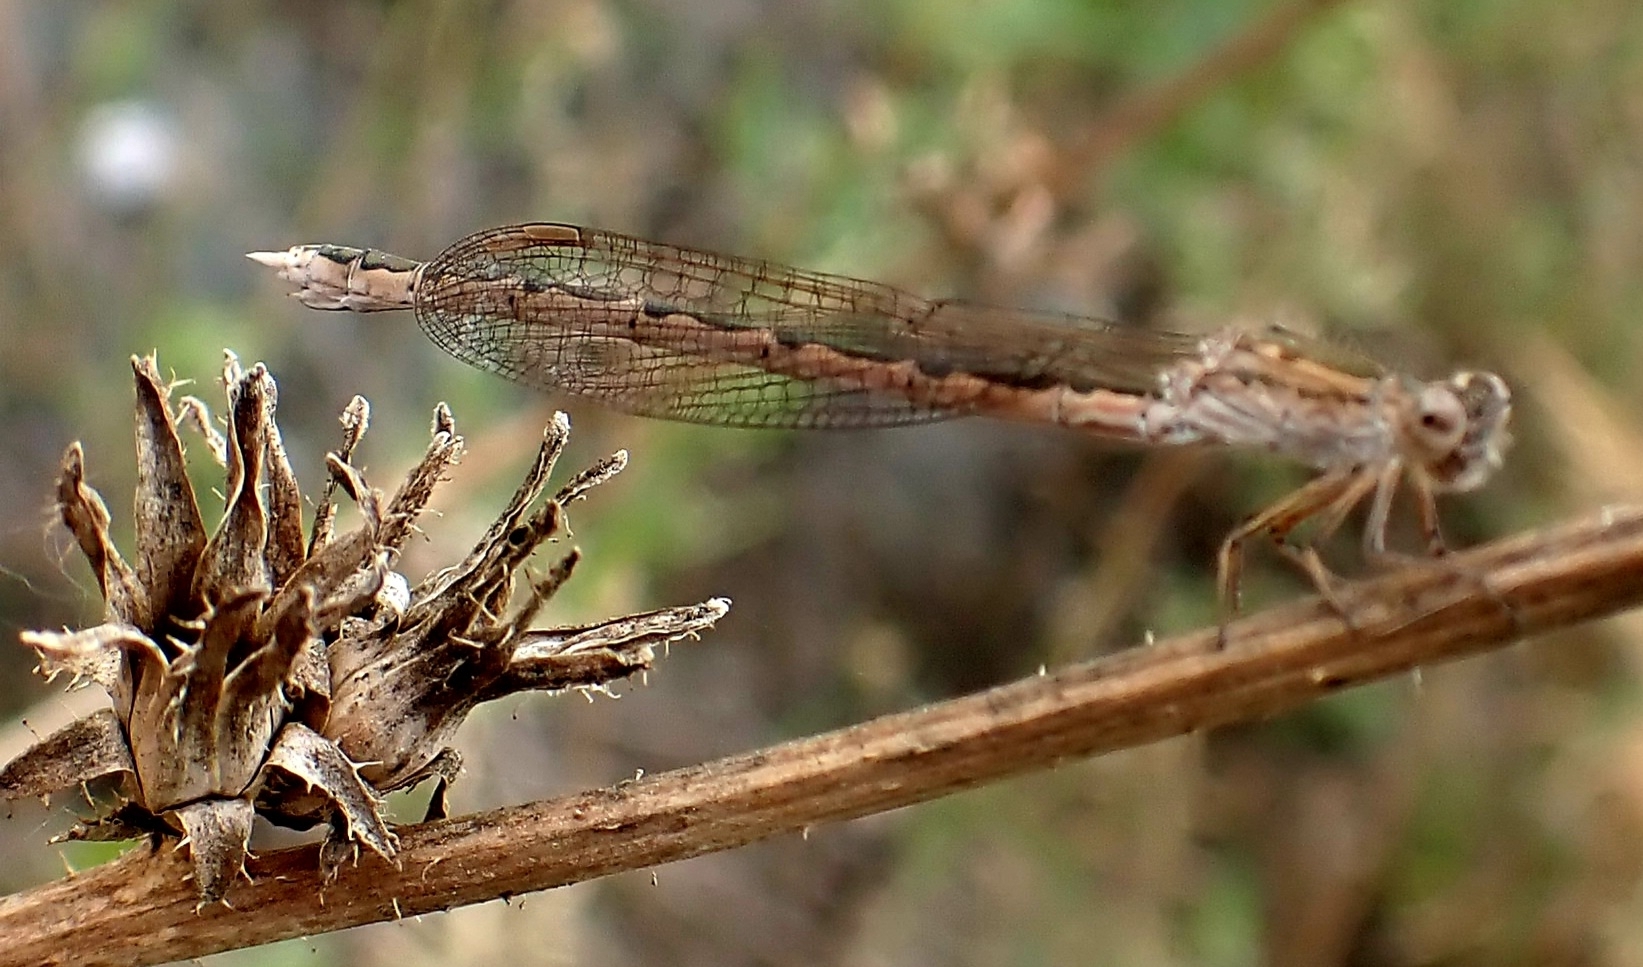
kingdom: Animalia
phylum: Arthropoda
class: Insecta
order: Odonata
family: Lestidae
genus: Sympecma
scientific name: Sympecma paedisca
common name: Siberian winter damsel
